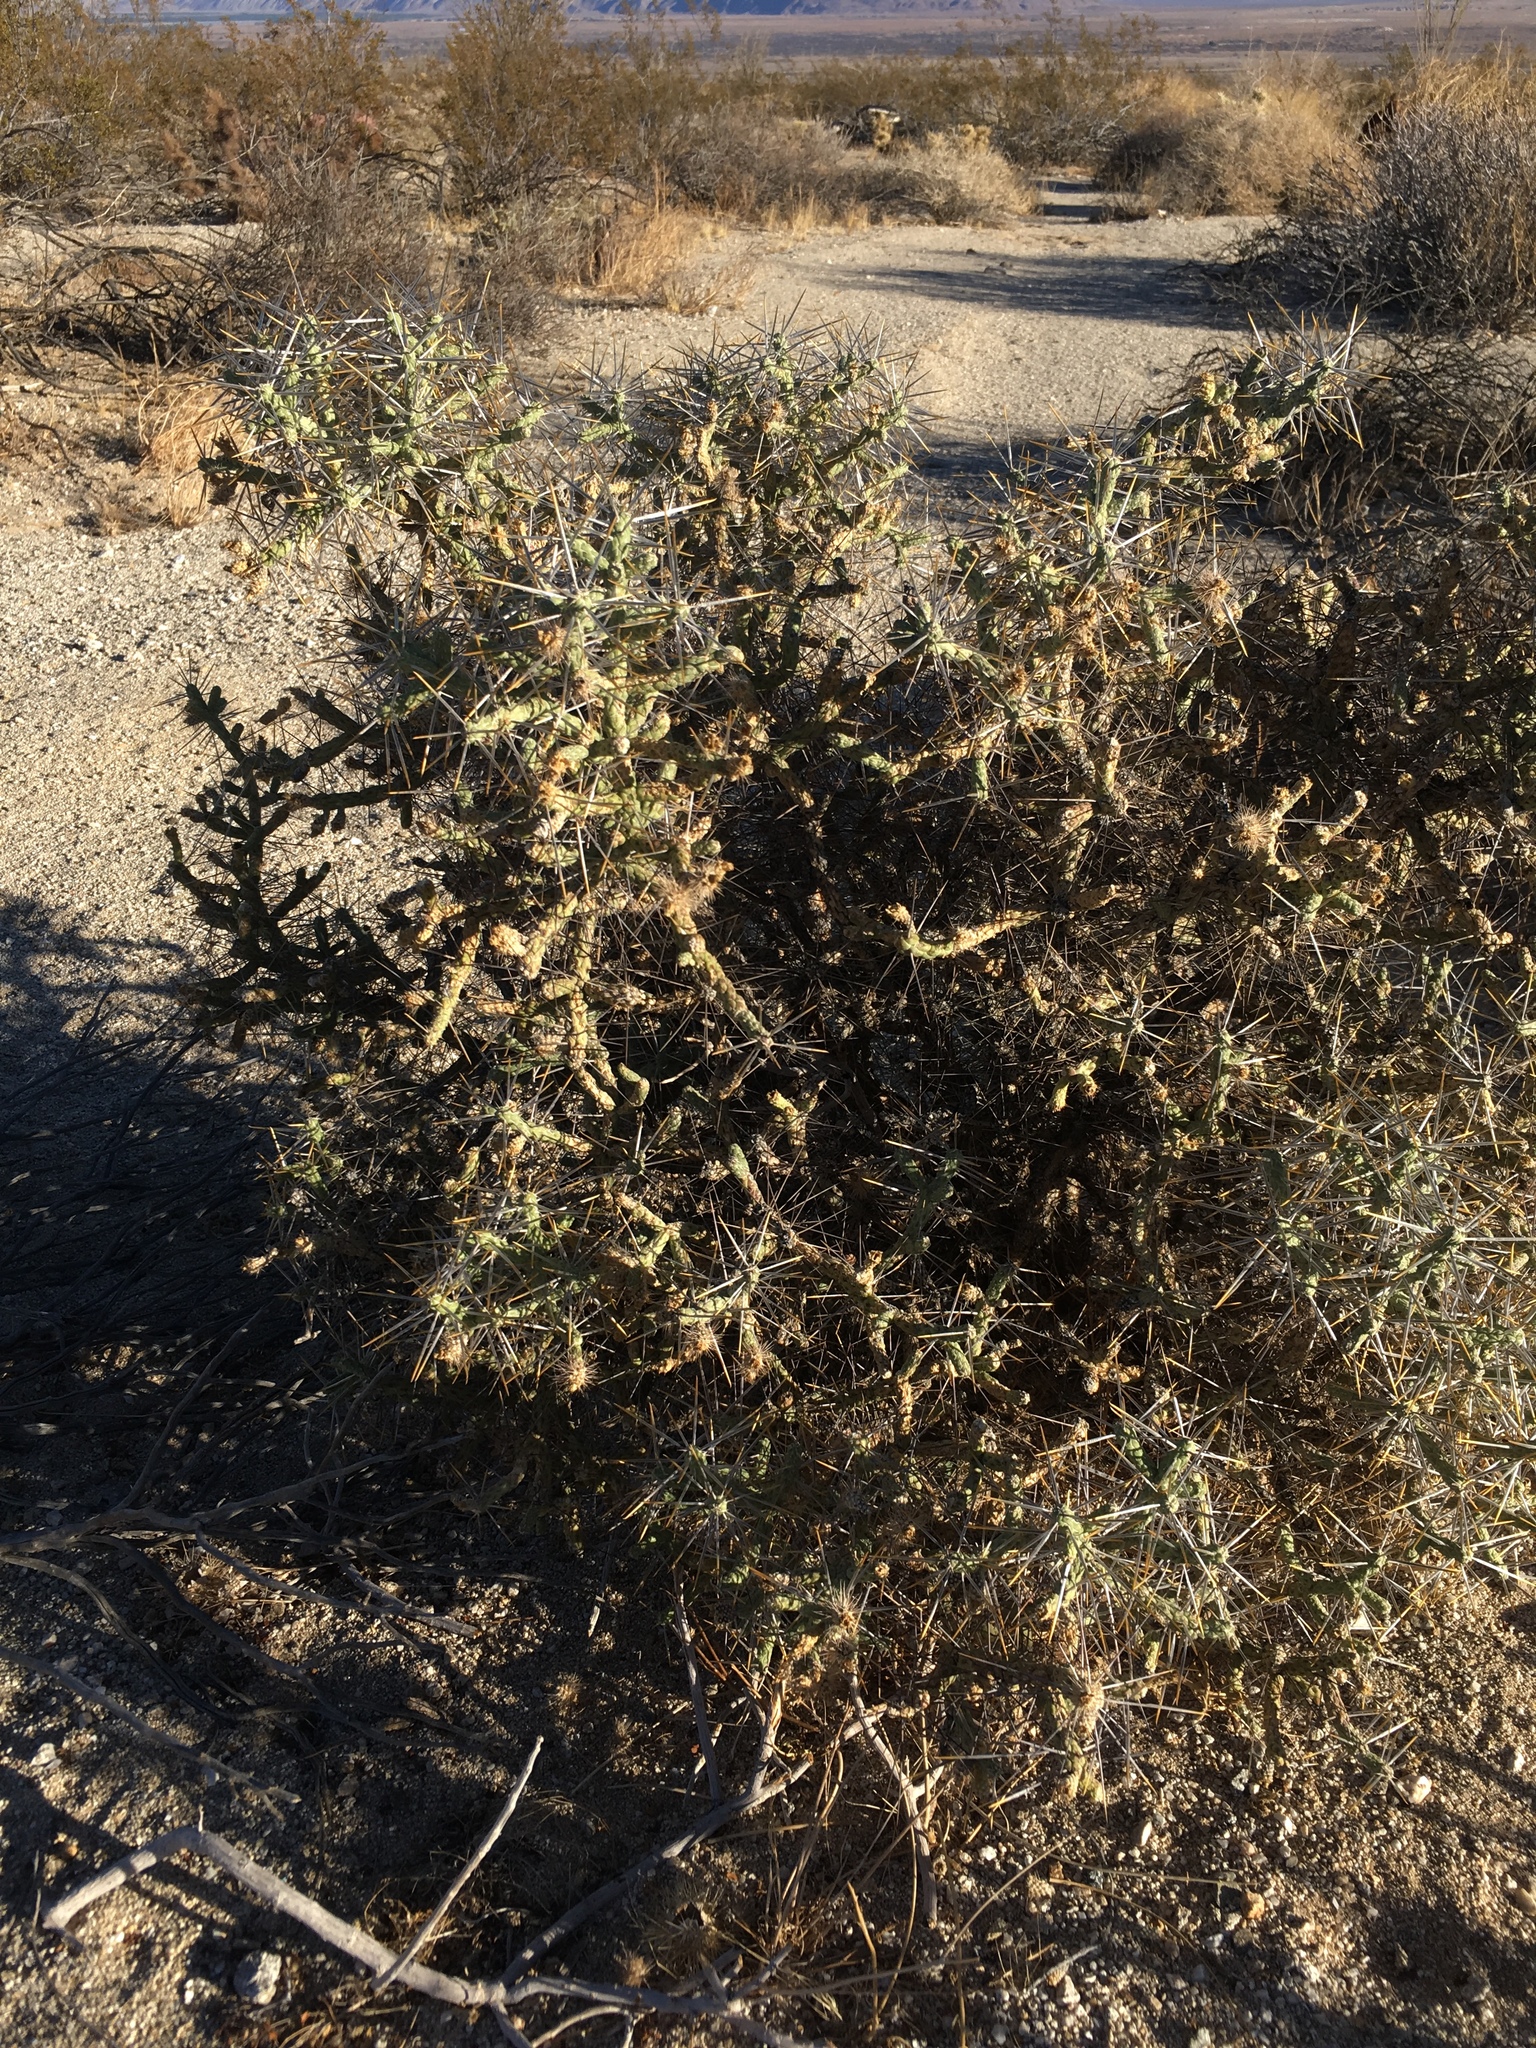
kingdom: Plantae
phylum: Tracheophyta
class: Magnoliopsida
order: Caryophyllales
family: Cactaceae
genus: Cylindropuntia
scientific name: Cylindropuntia ramosissima
